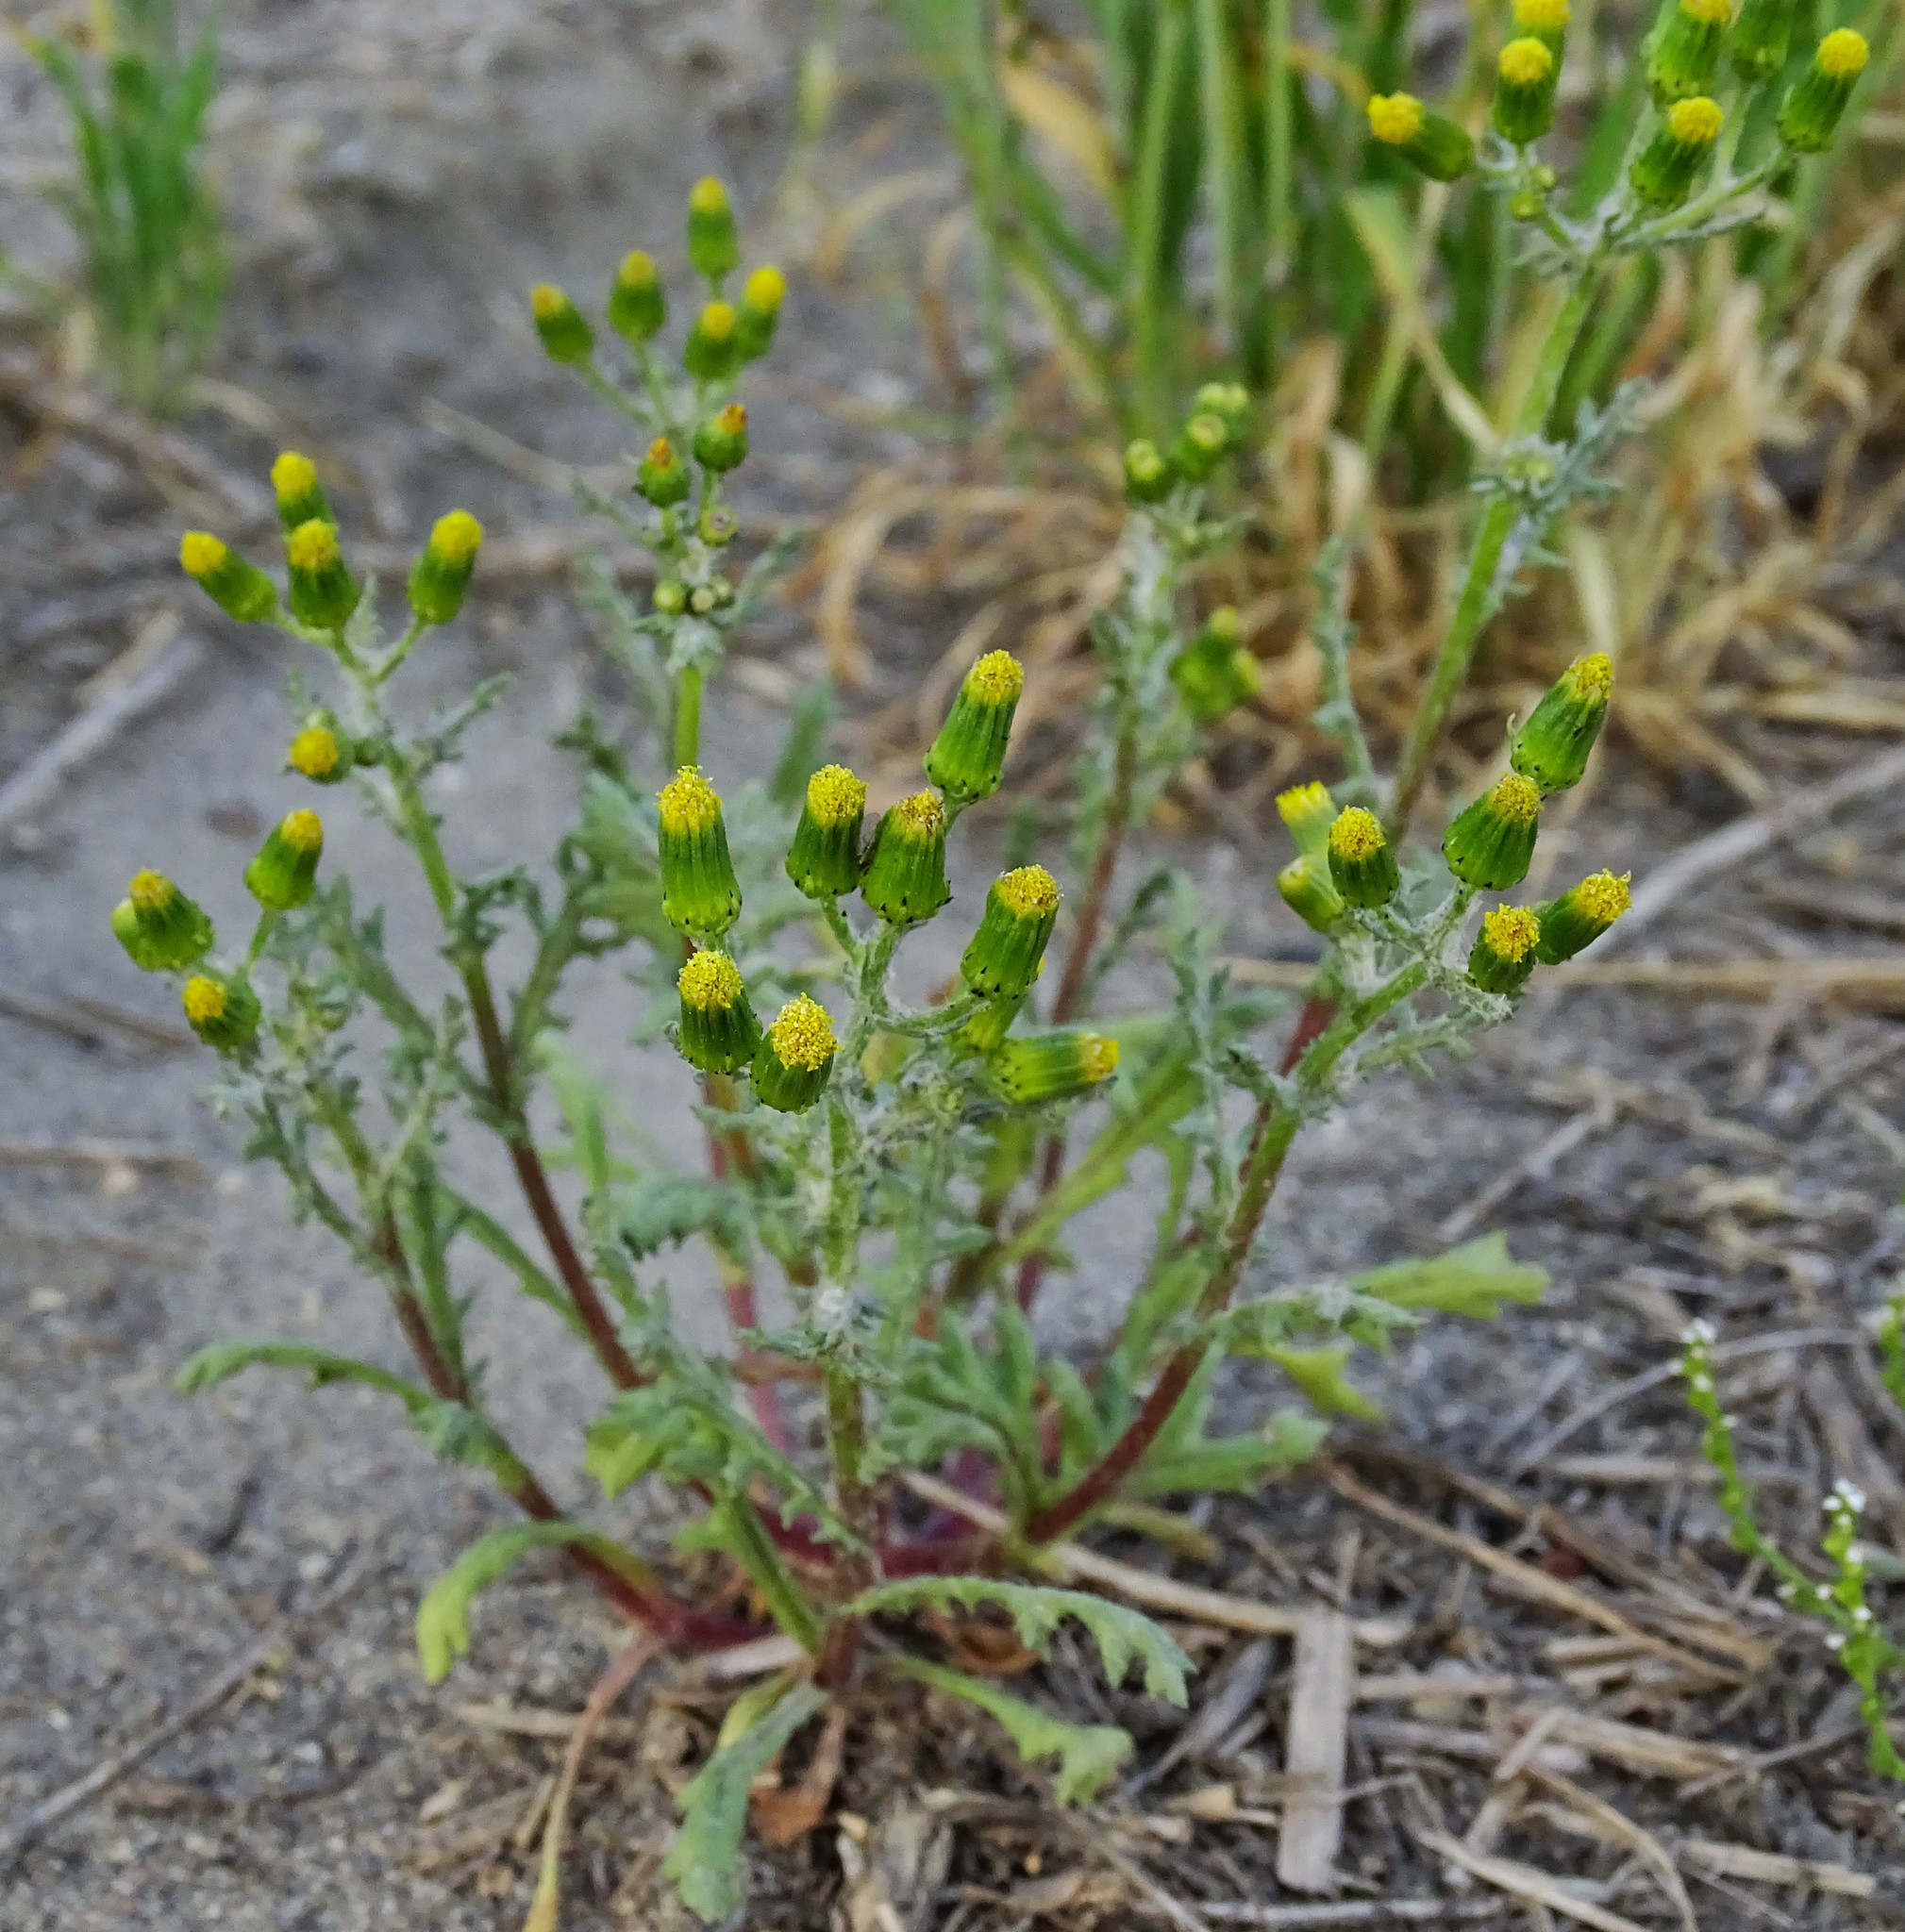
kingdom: Plantae
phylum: Tracheophyta
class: Magnoliopsida
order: Asterales
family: Asteraceae
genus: Senecio
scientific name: Senecio vulgaris
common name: Old-man-in-the-spring
